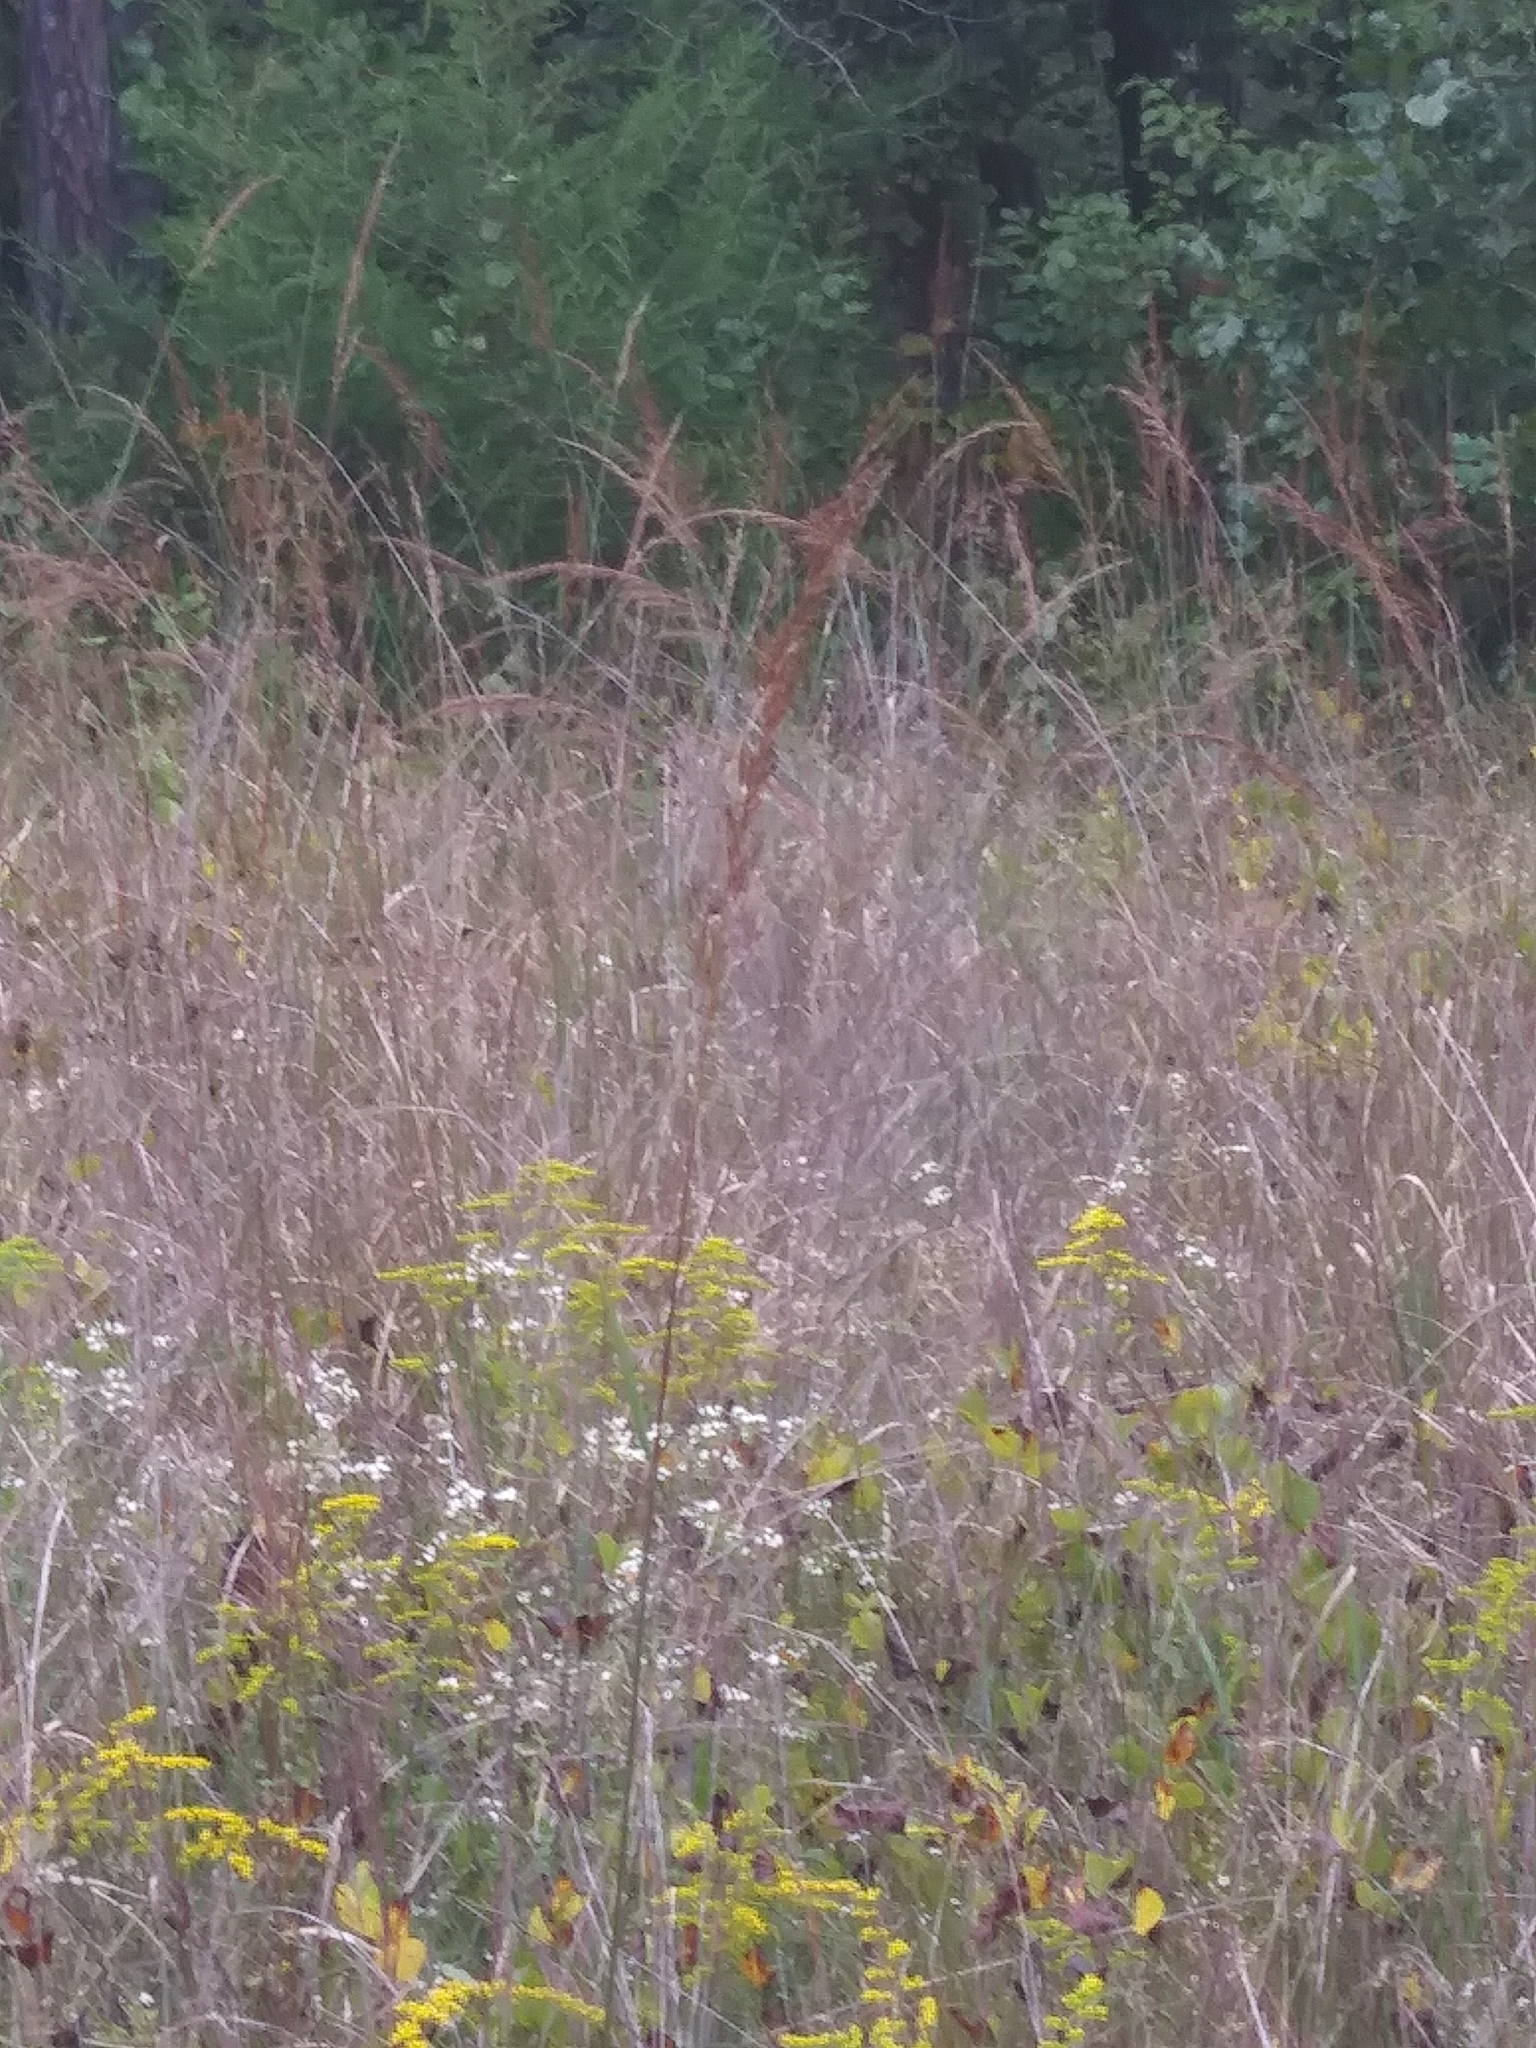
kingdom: Plantae
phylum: Tracheophyta
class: Liliopsida
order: Poales
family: Poaceae
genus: Sorghastrum
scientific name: Sorghastrum nutans
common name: Indian grass
